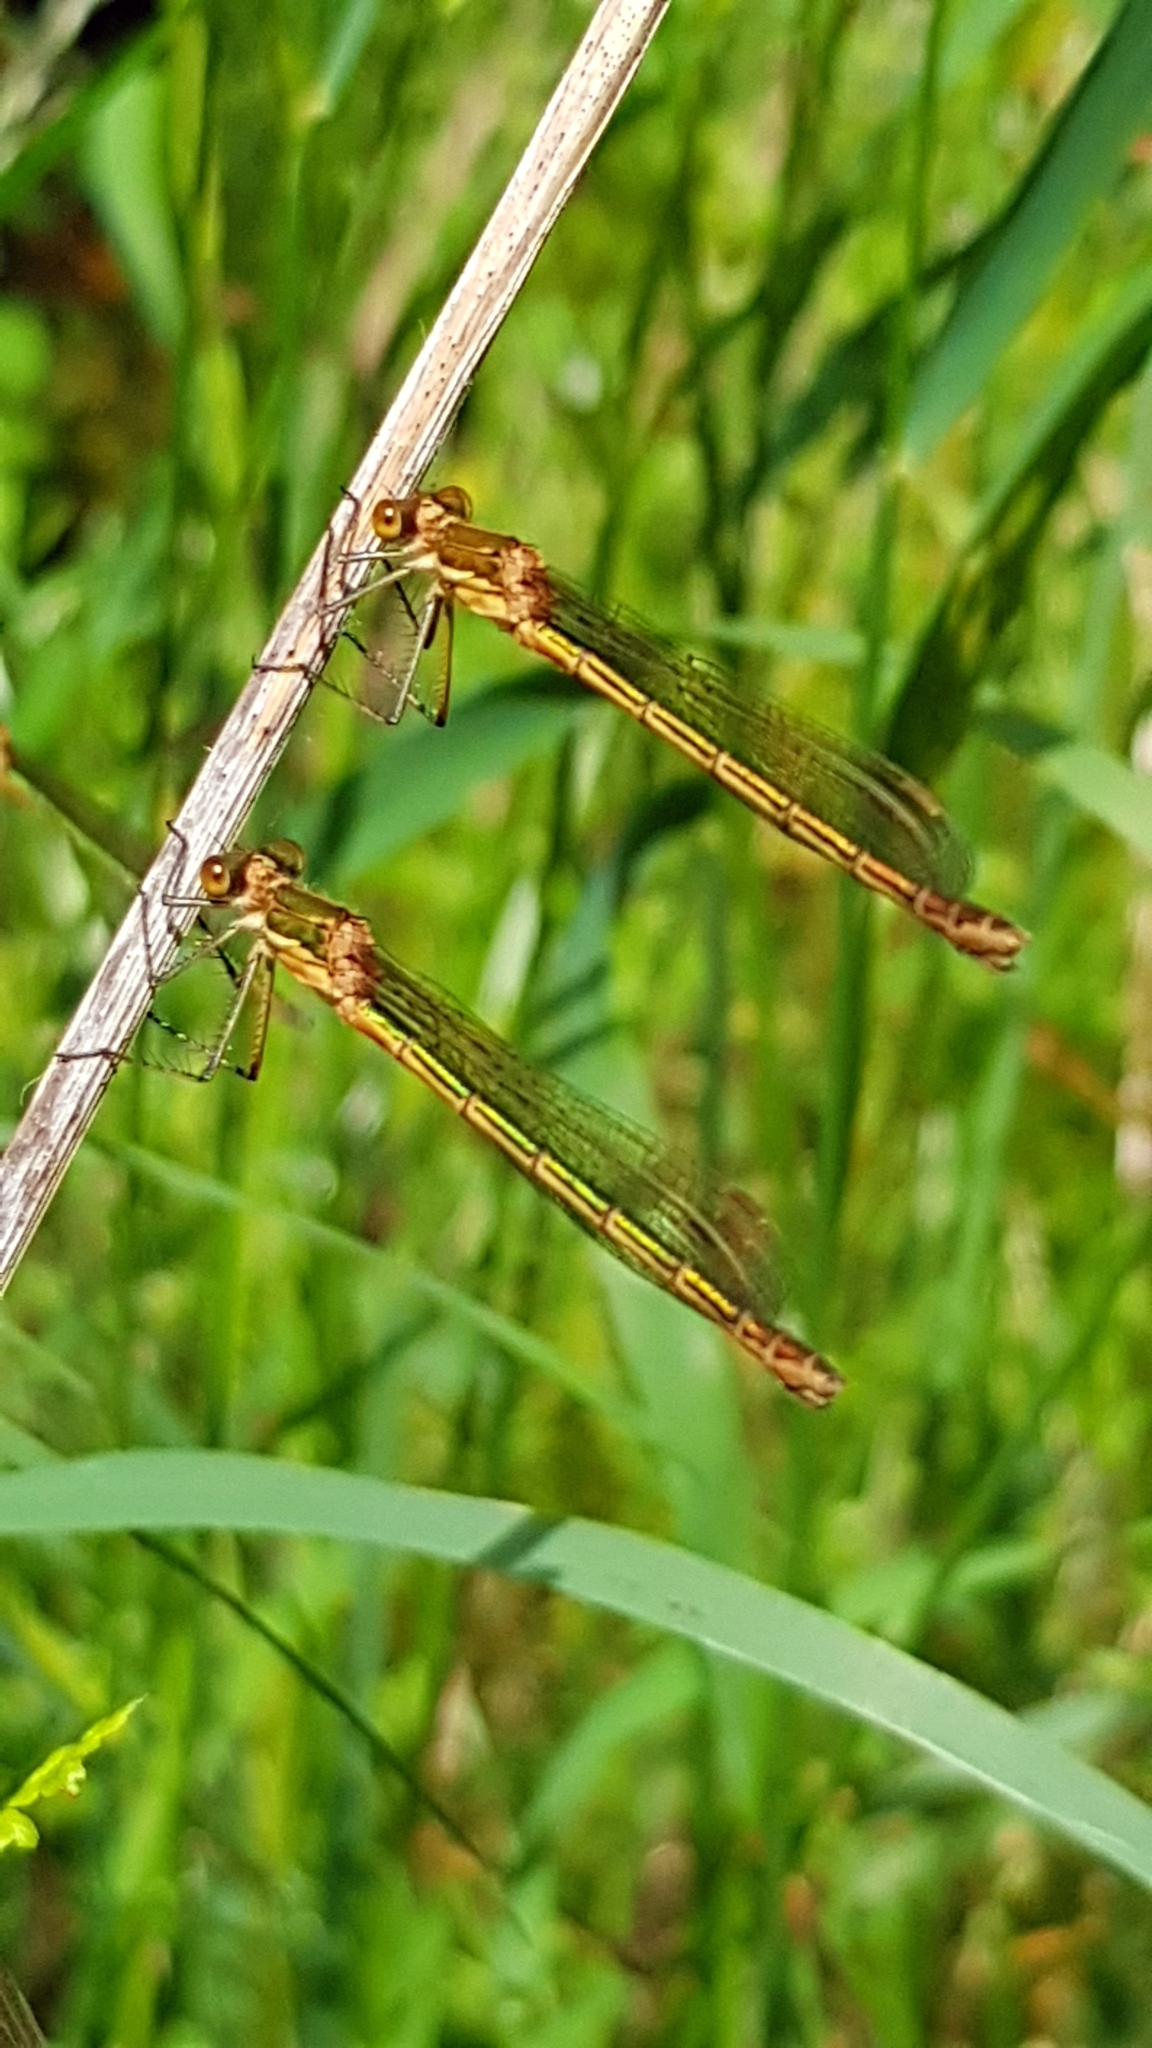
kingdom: Animalia
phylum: Arthropoda
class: Insecta
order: Odonata
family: Lestidae
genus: Lestes
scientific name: Lestes sponsa
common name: Common spreadwing
